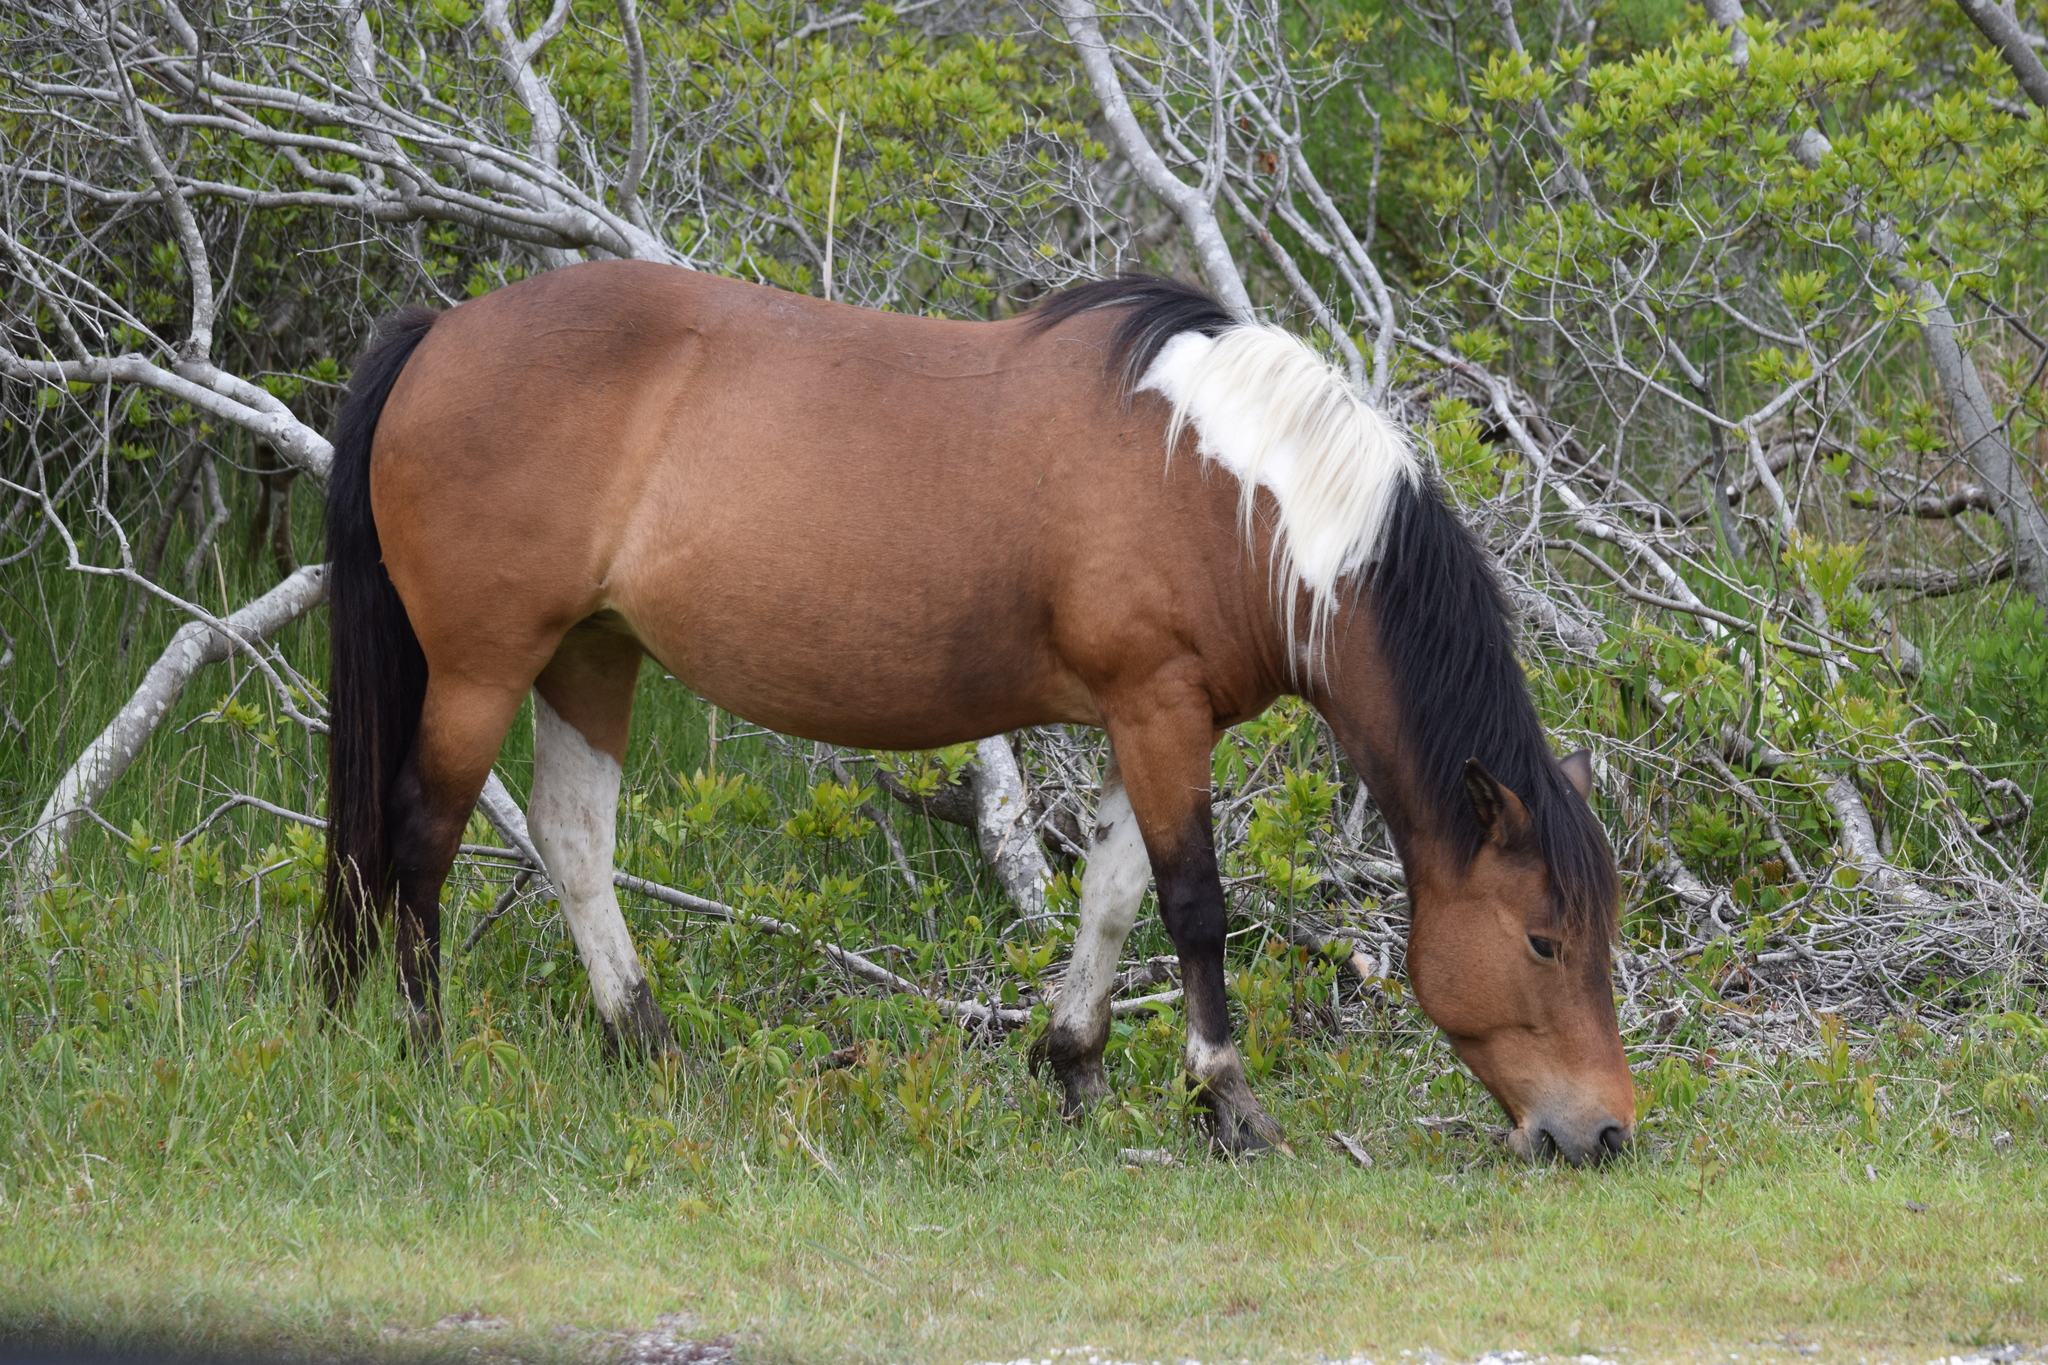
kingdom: Animalia
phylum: Chordata
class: Mammalia
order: Perissodactyla
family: Equidae
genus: Equus
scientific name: Equus caballus
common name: Horse
